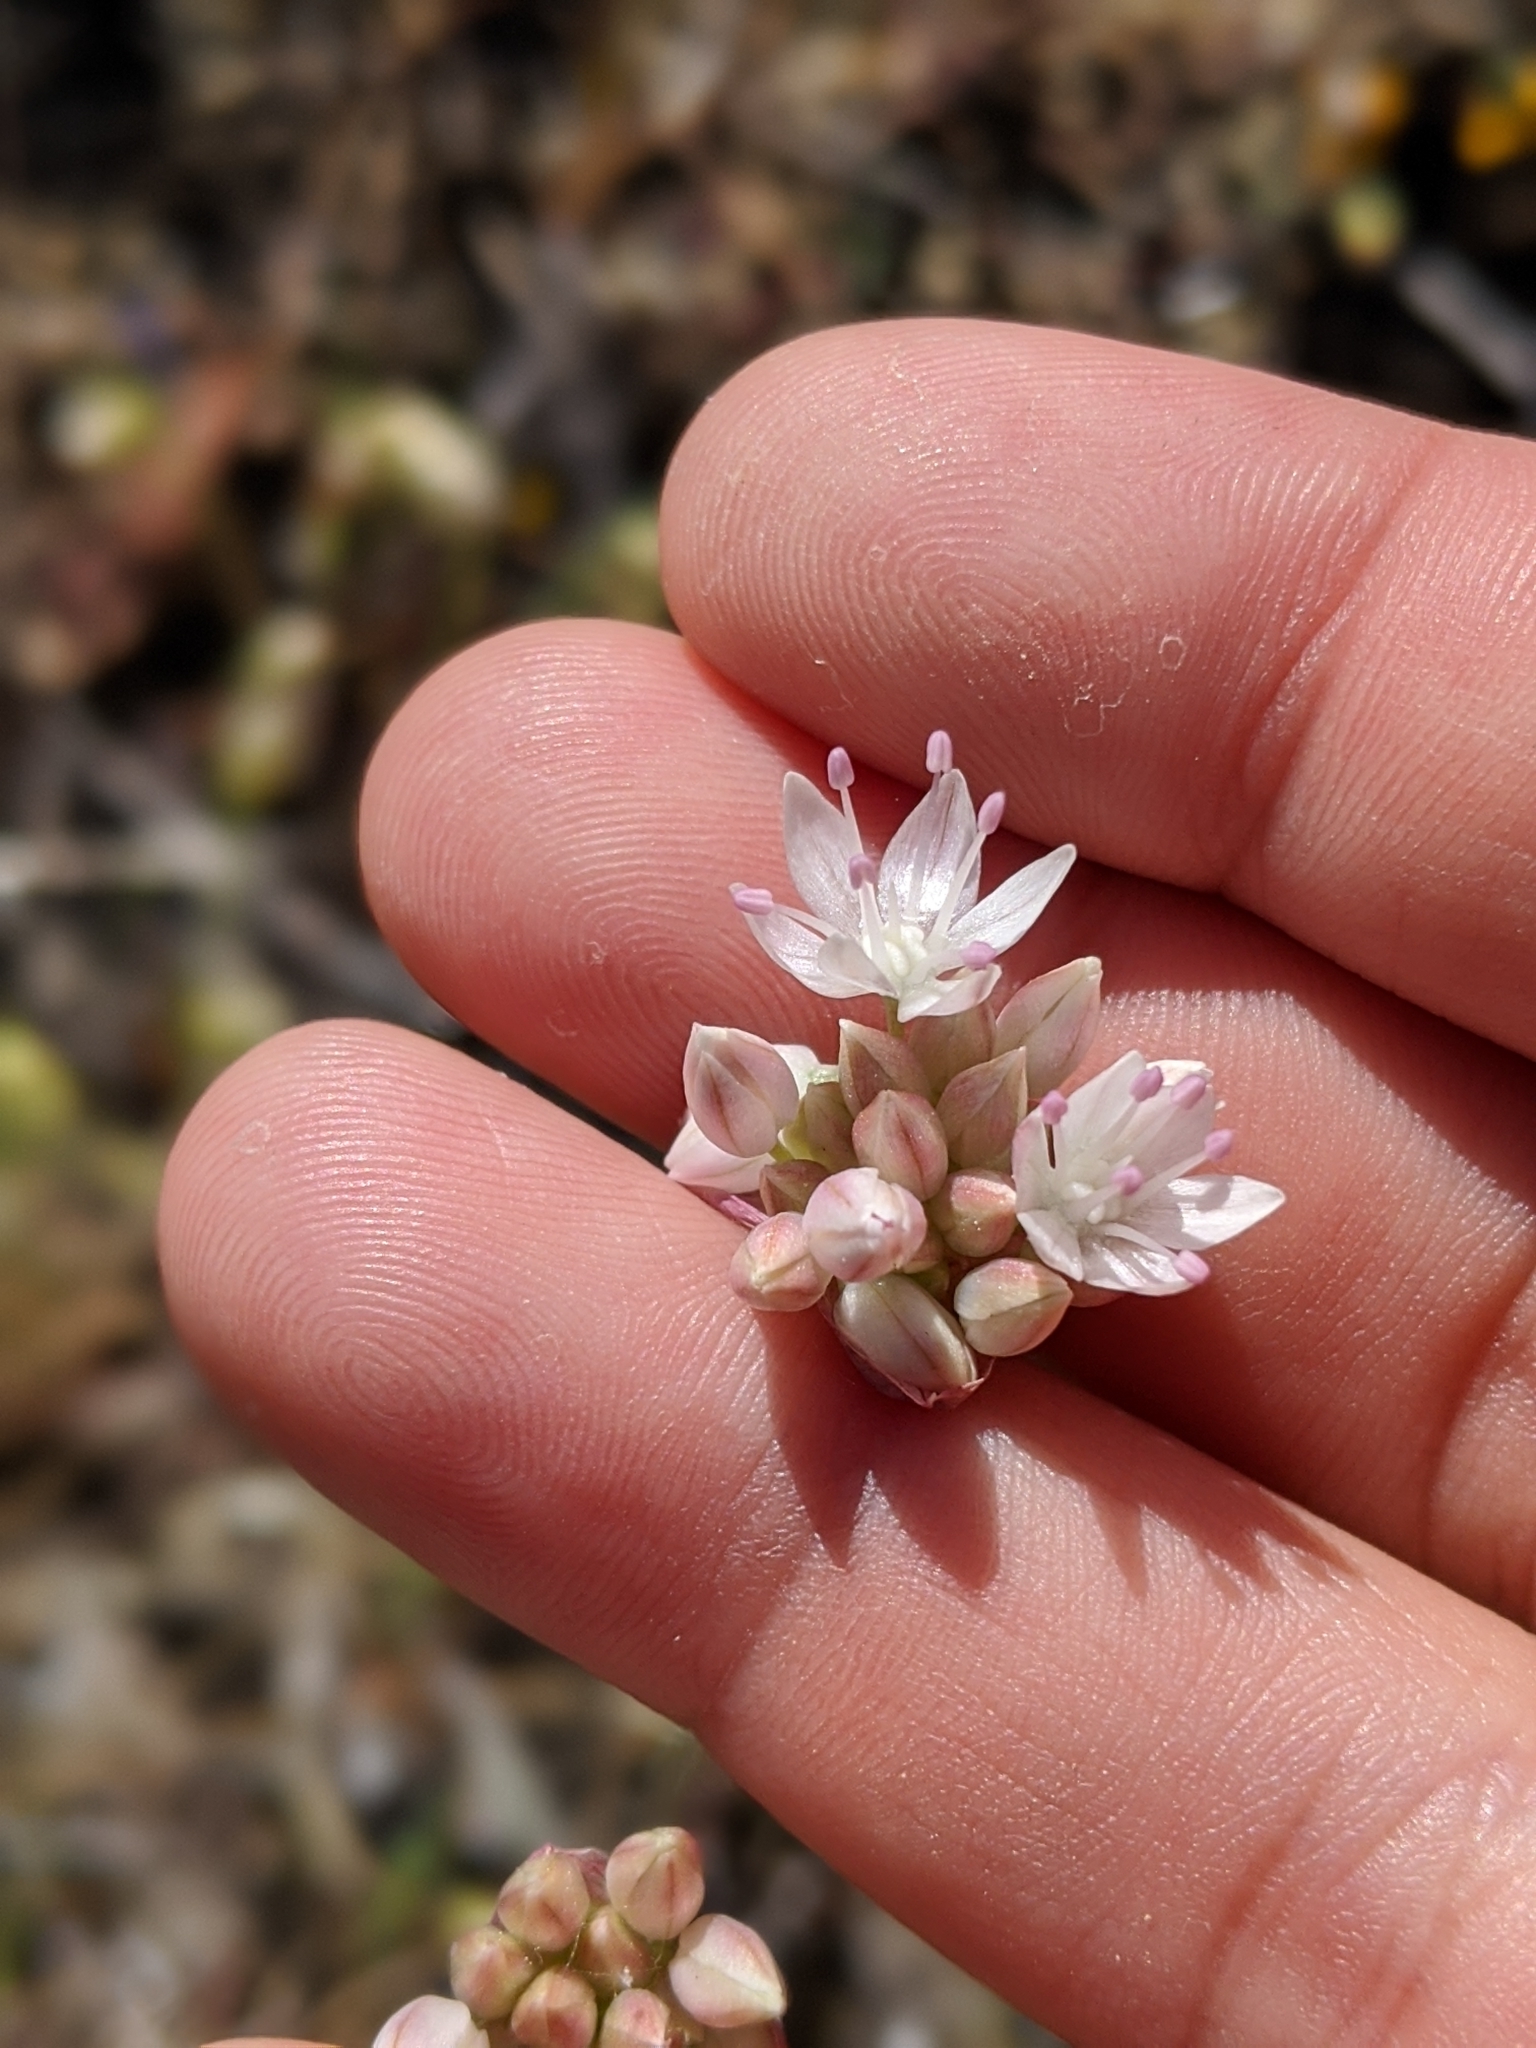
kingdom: Plantae
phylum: Tracheophyta
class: Liliopsida
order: Asparagales
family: Amaryllidaceae
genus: Allium
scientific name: Allium amplectens
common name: Narrow-leaved onion
